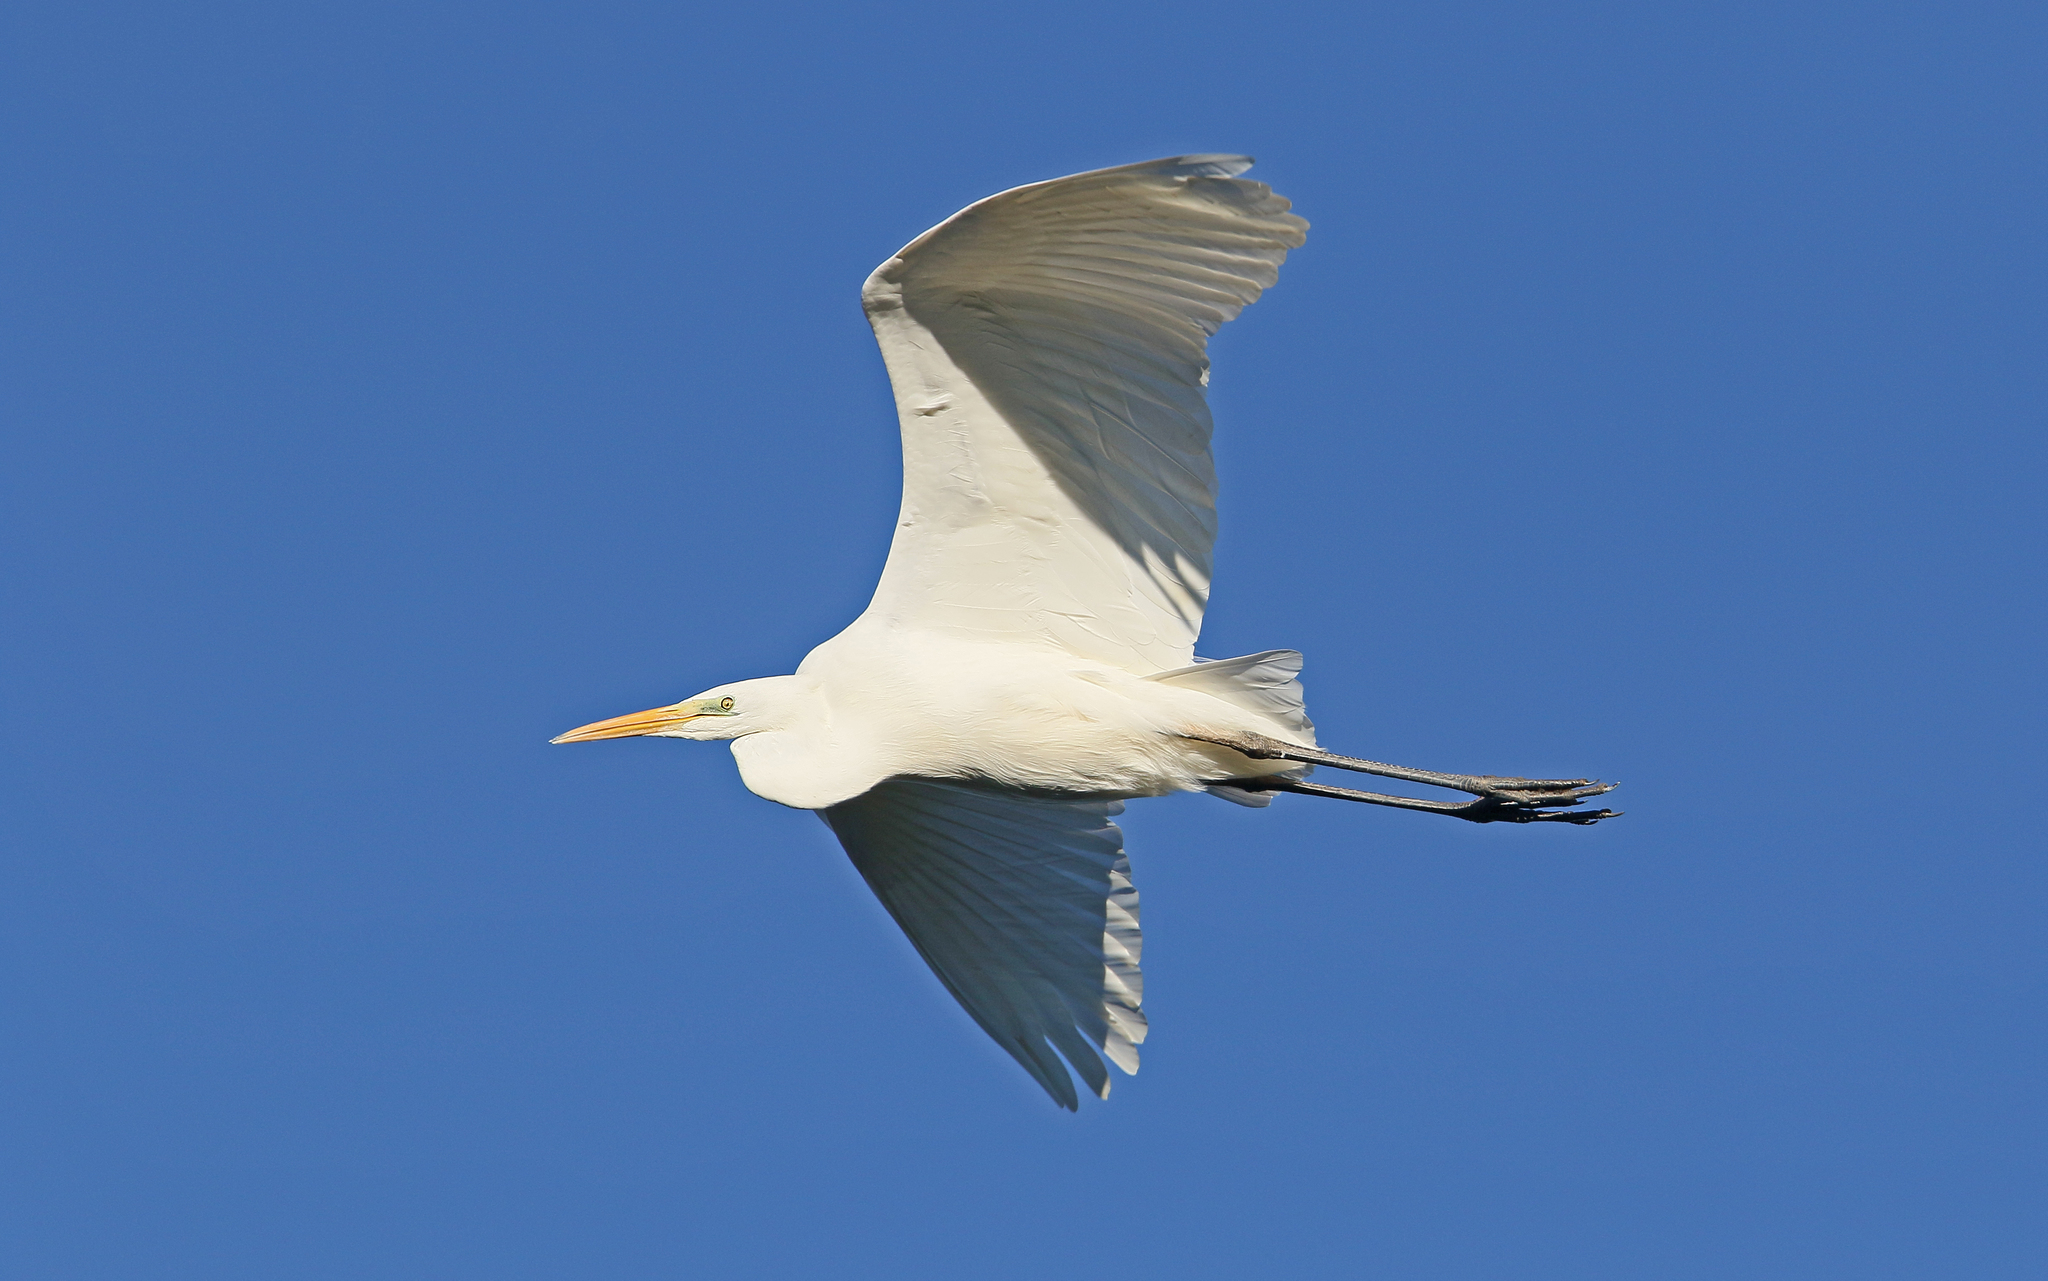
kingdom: Animalia
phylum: Chordata
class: Aves
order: Pelecaniformes
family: Ardeidae
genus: Ardea
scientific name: Ardea alba
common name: Great egret
